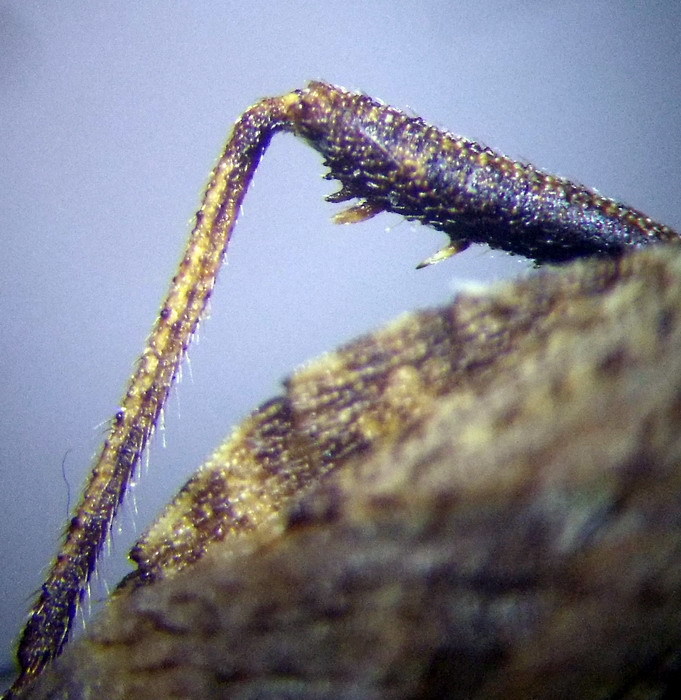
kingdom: Animalia
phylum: Arthropoda
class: Insecta
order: Hemiptera
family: Coreidae
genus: Coriomeris
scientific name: Coriomeris affinis
